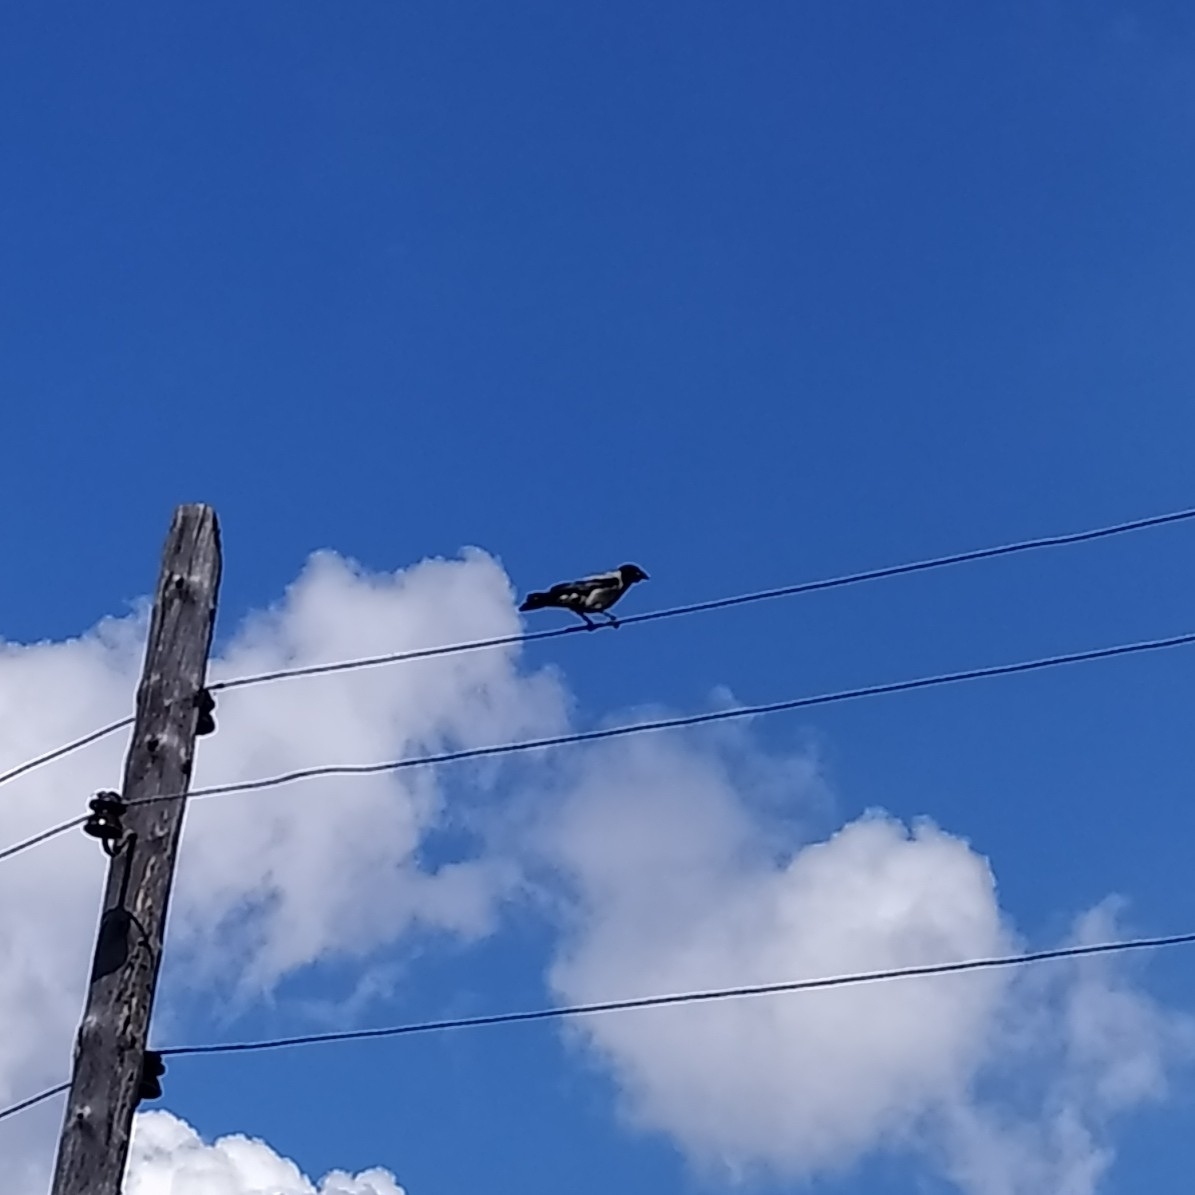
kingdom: Animalia
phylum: Chordata
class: Aves
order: Passeriformes
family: Corvidae
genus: Corvus
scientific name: Corvus cornix
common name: Hooded crow
